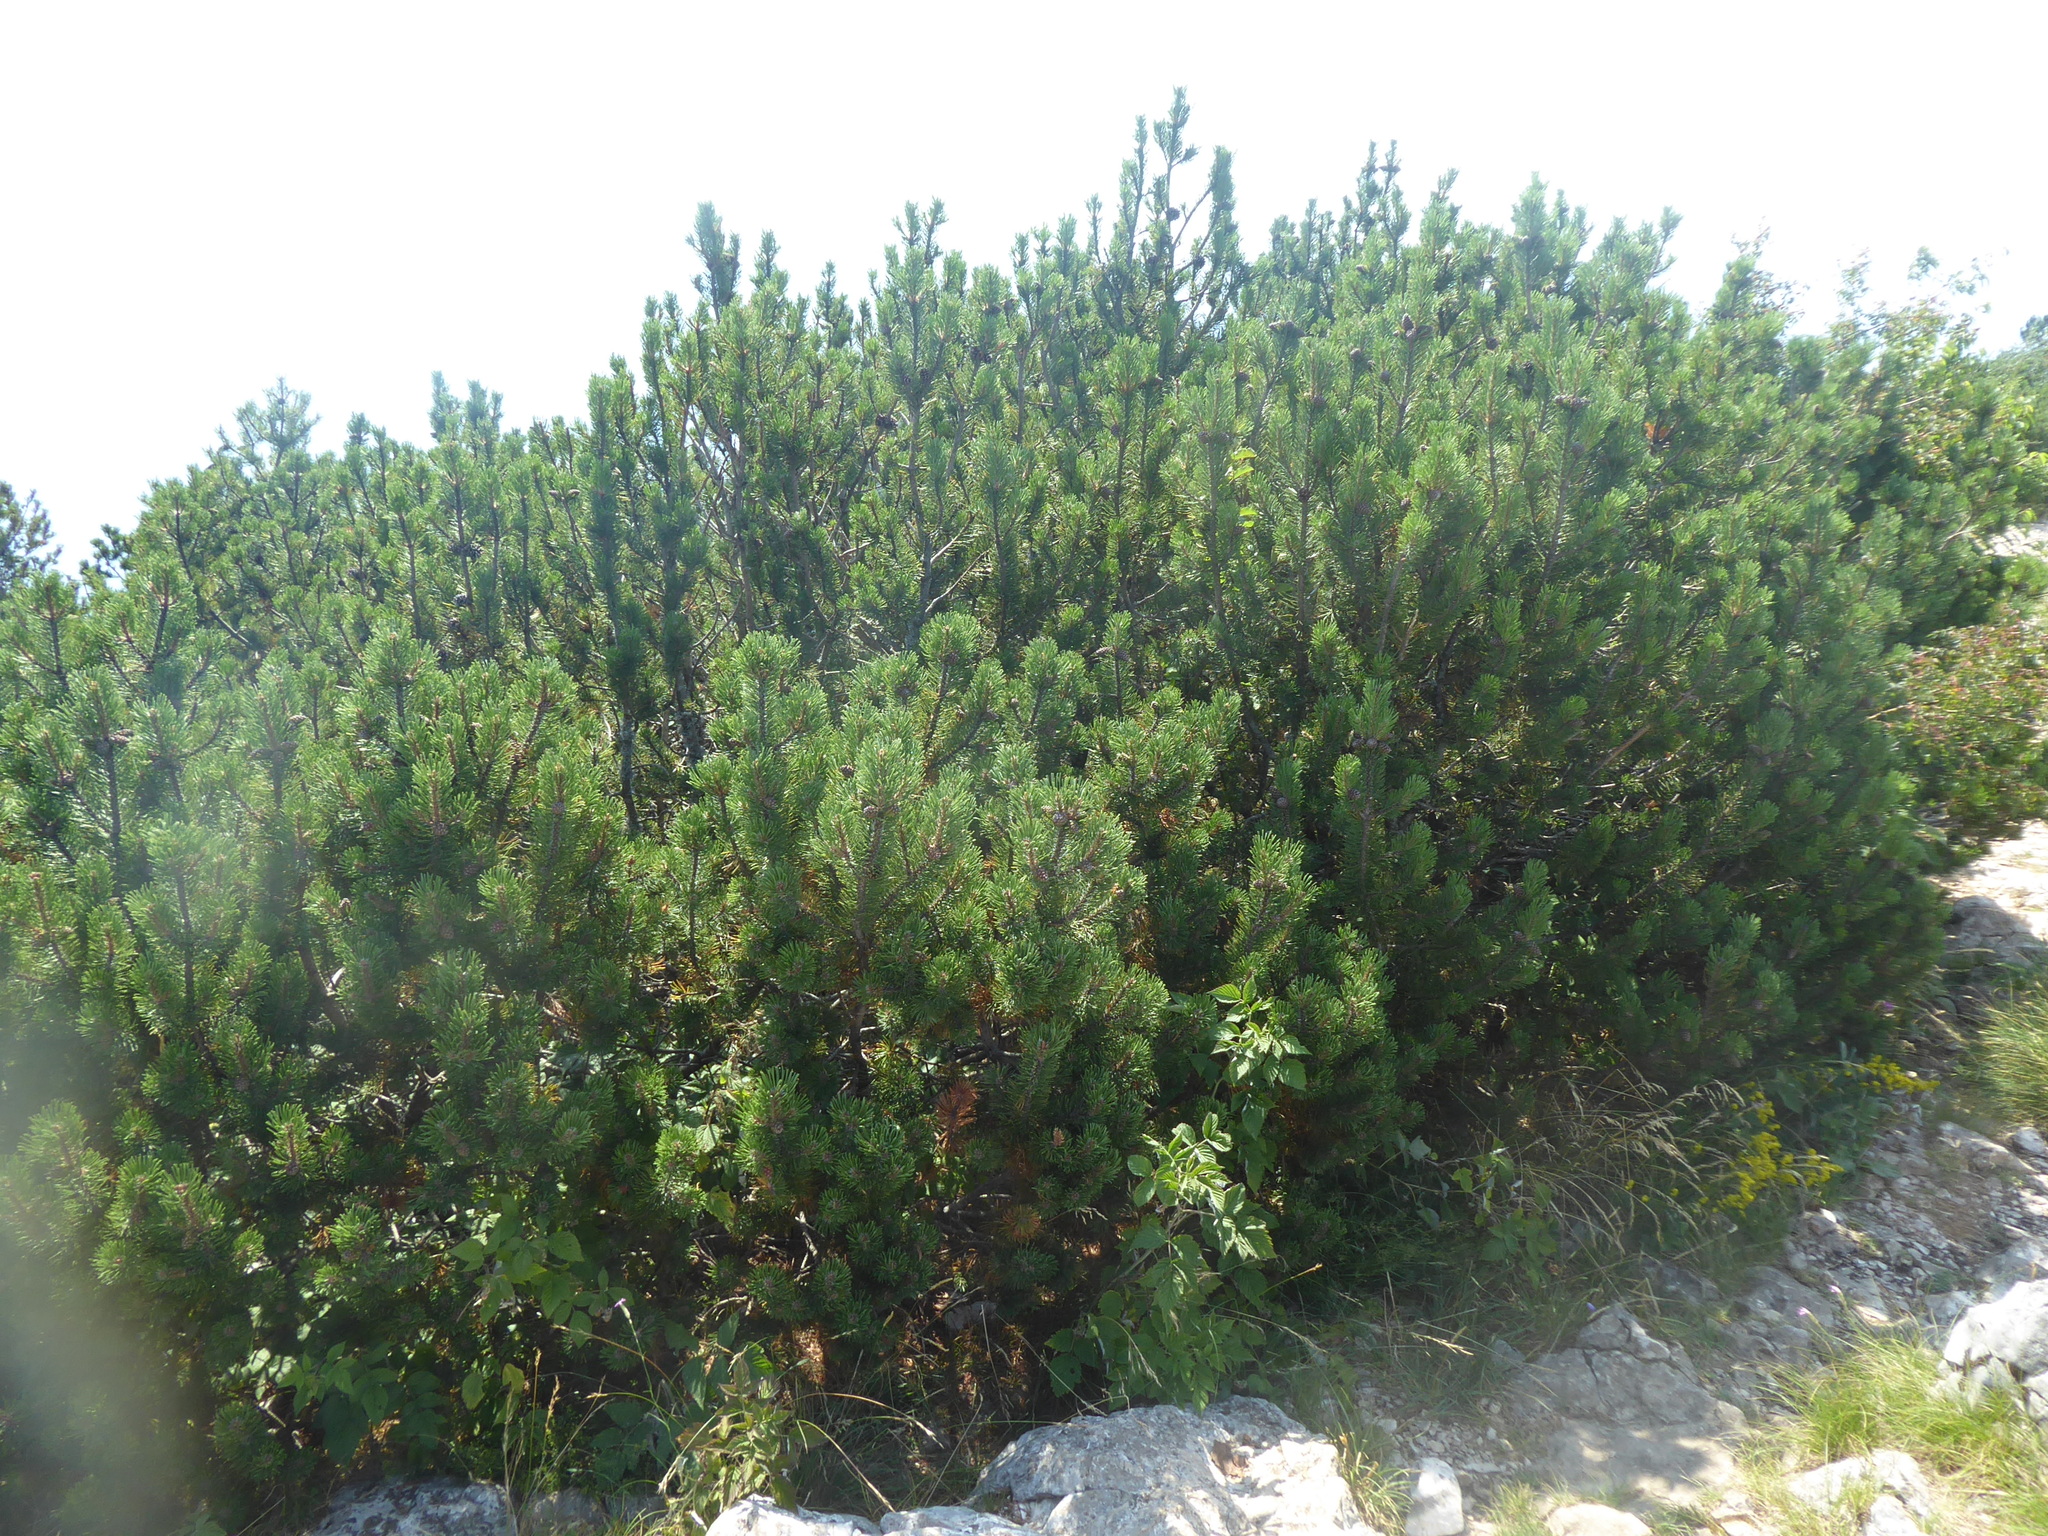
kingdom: Plantae
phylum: Tracheophyta
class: Pinopsida
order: Pinales
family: Pinaceae
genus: Pinus
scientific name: Pinus mugo
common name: Mugo pine
